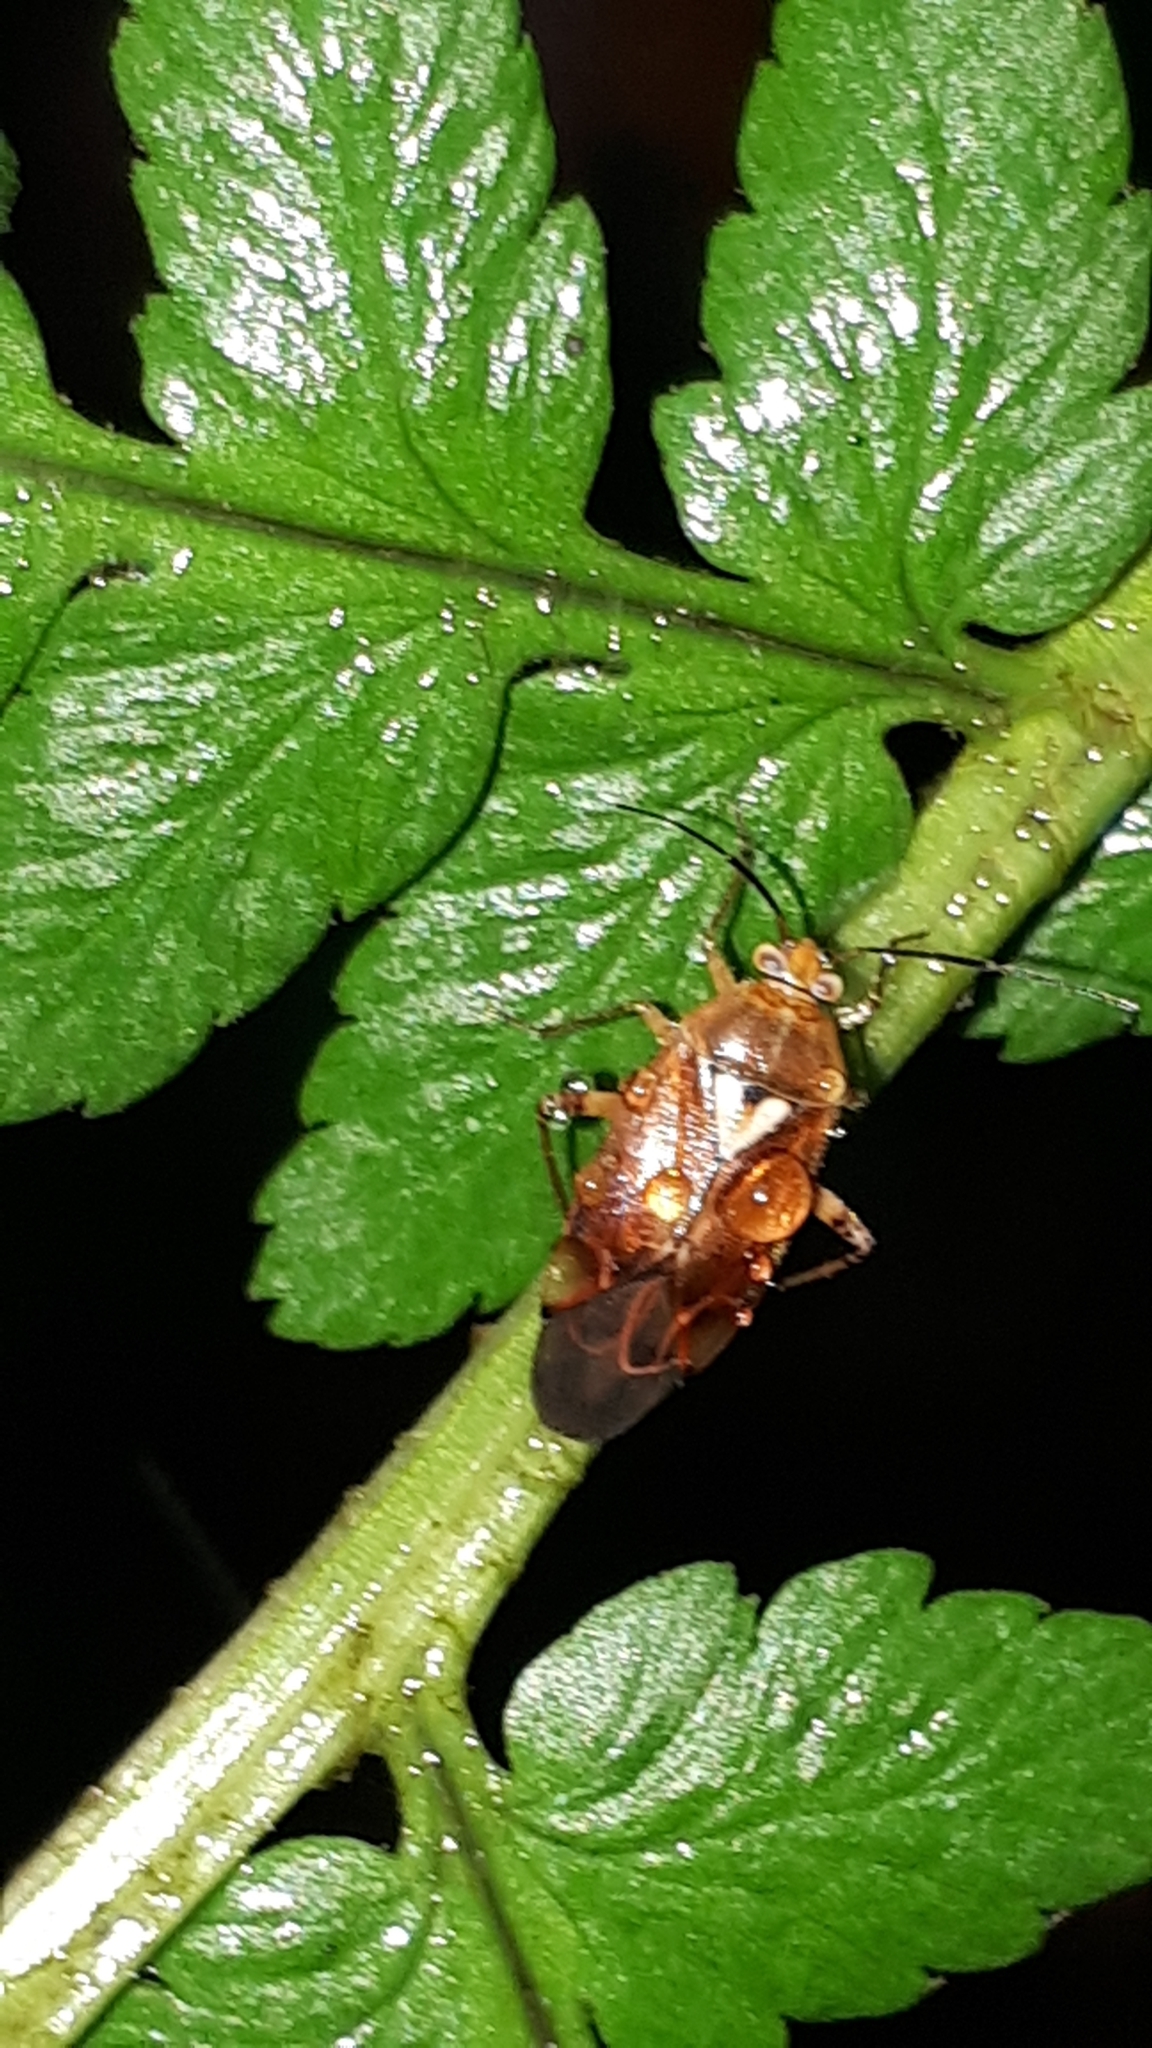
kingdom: Animalia
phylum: Arthropoda
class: Insecta
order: Hemiptera
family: Miridae
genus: Lygus
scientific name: Lygus pratensis
